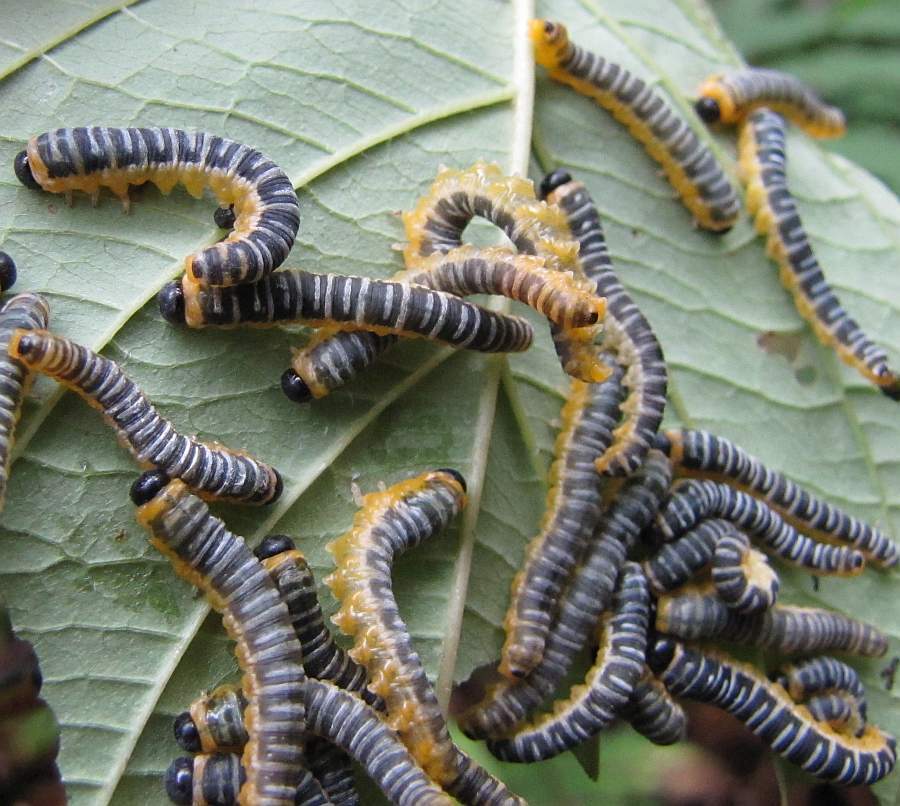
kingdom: Animalia
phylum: Arthropoda
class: Insecta
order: Hymenoptera
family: Tenthredinidae
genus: Macremphytus
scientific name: Macremphytus
